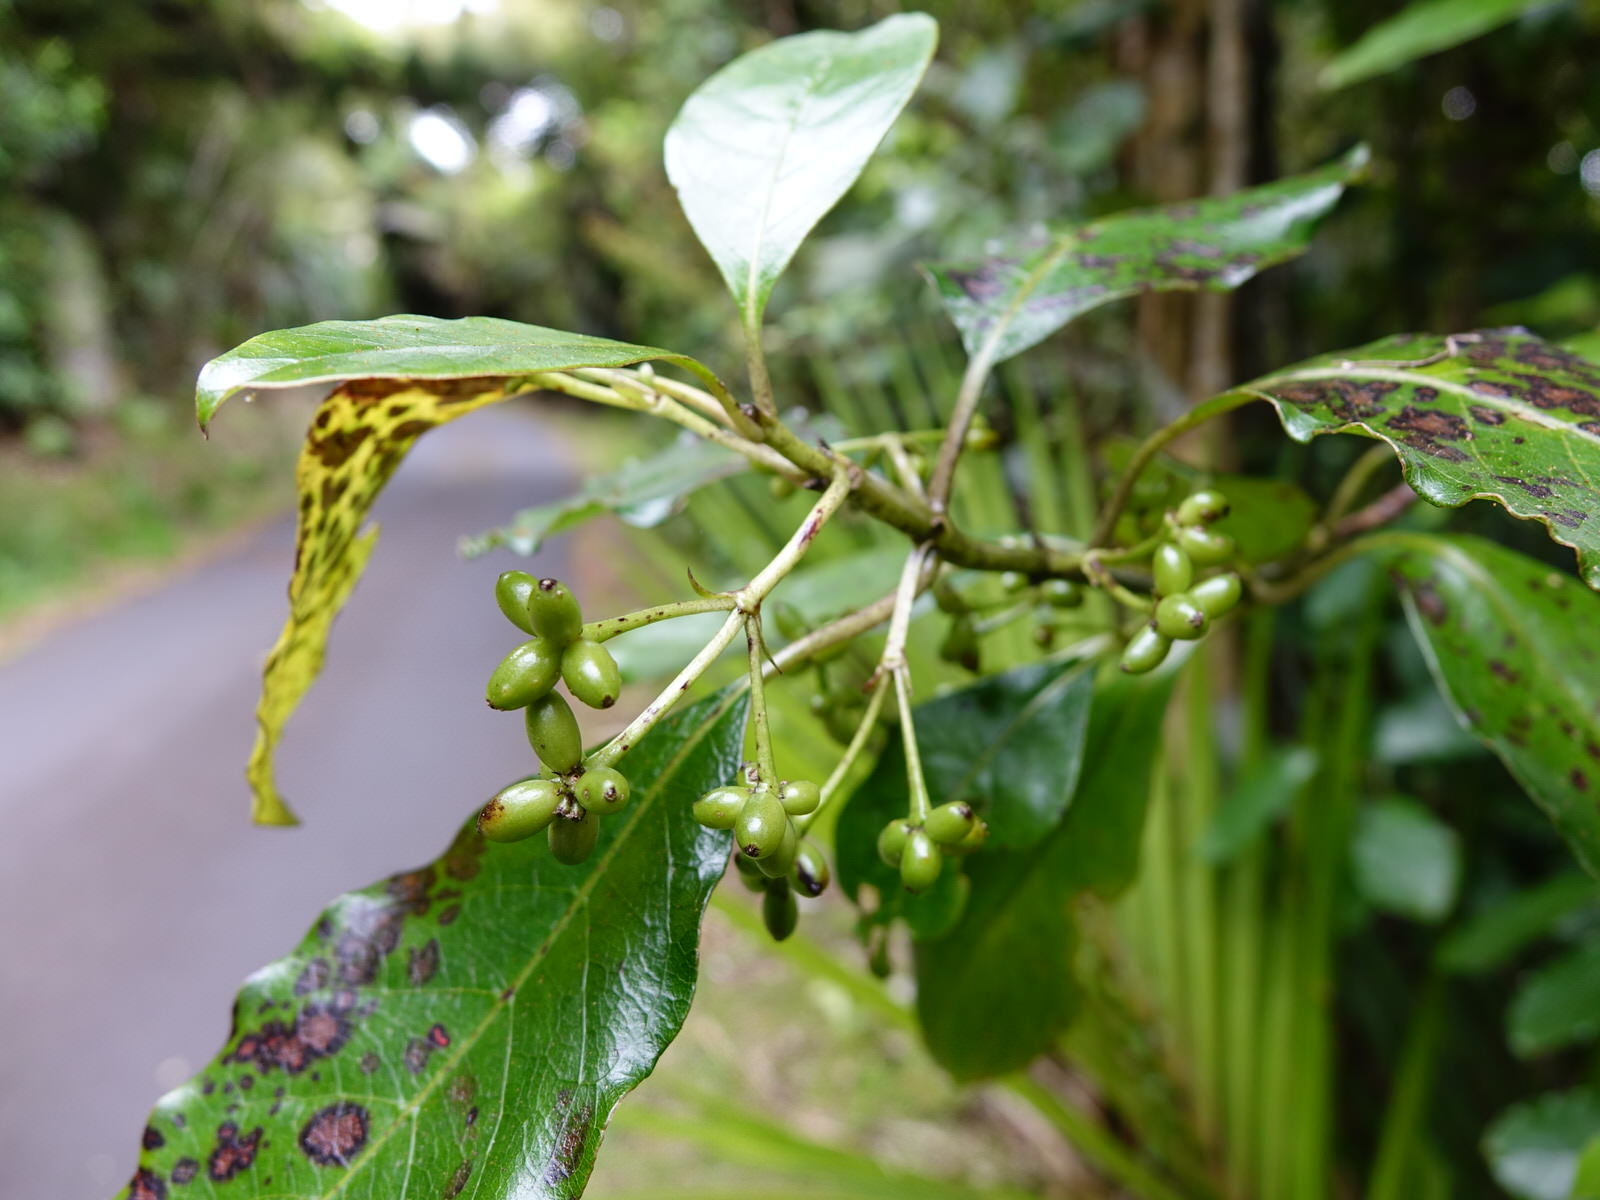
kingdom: Plantae
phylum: Tracheophyta
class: Magnoliopsida
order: Gentianales
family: Rubiaceae
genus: Coprosma
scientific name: Coprosma autumnalis
